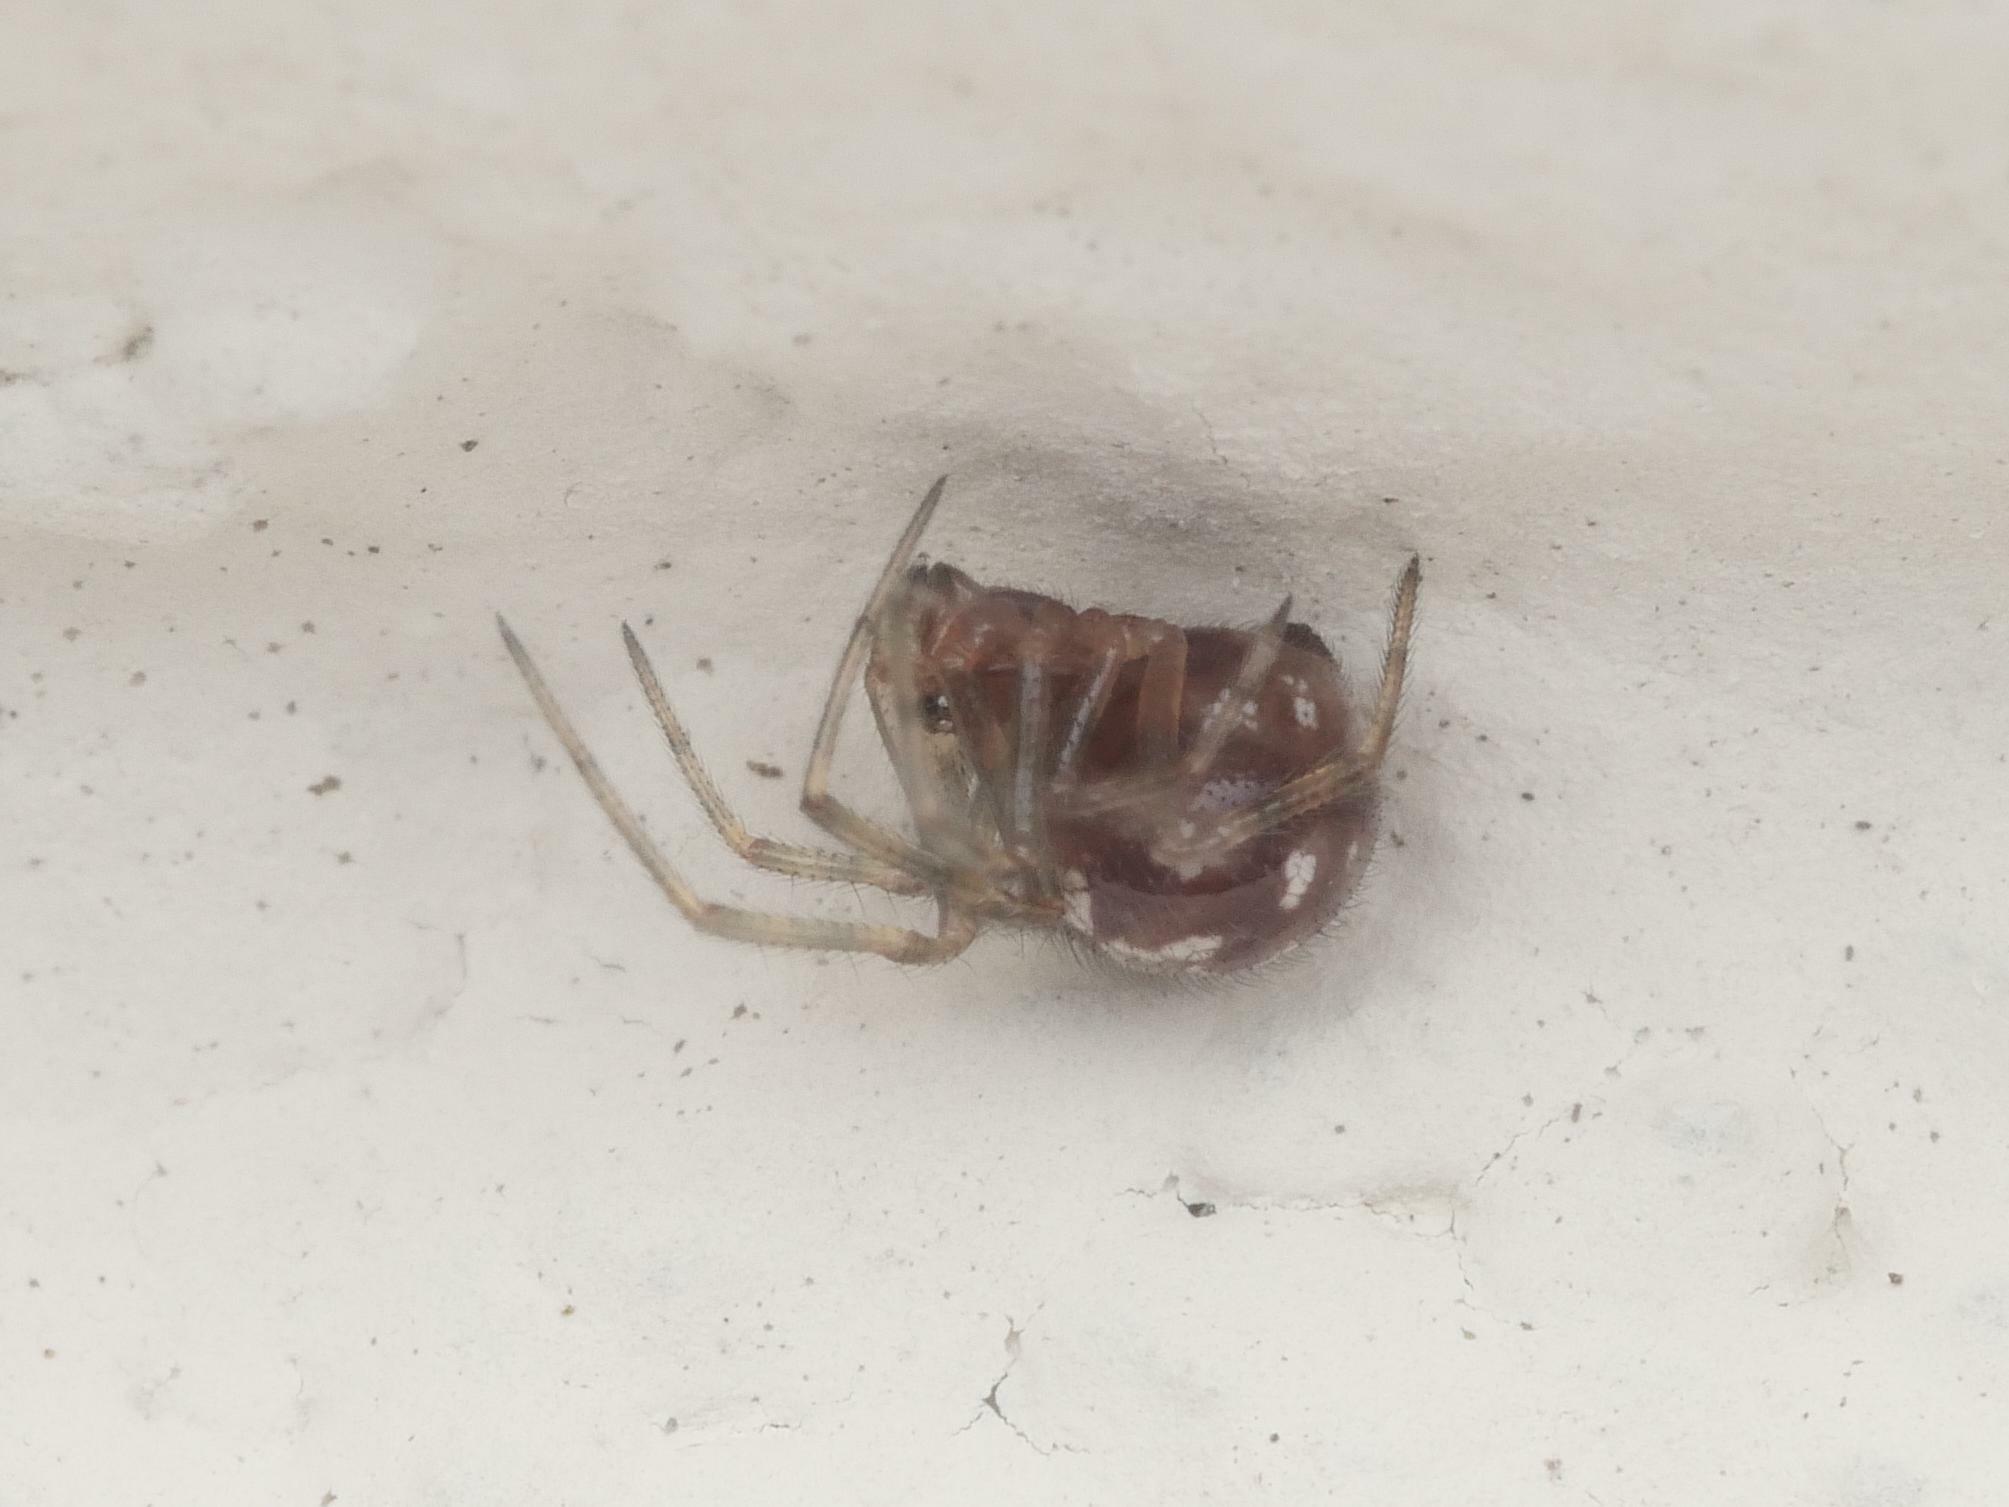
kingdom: Animalia
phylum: Arthropoda
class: Arachnida
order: Araneae
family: Theridiidae
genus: Steatoda
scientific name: Steatoda triangulosa
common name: Triangulate bud spider
